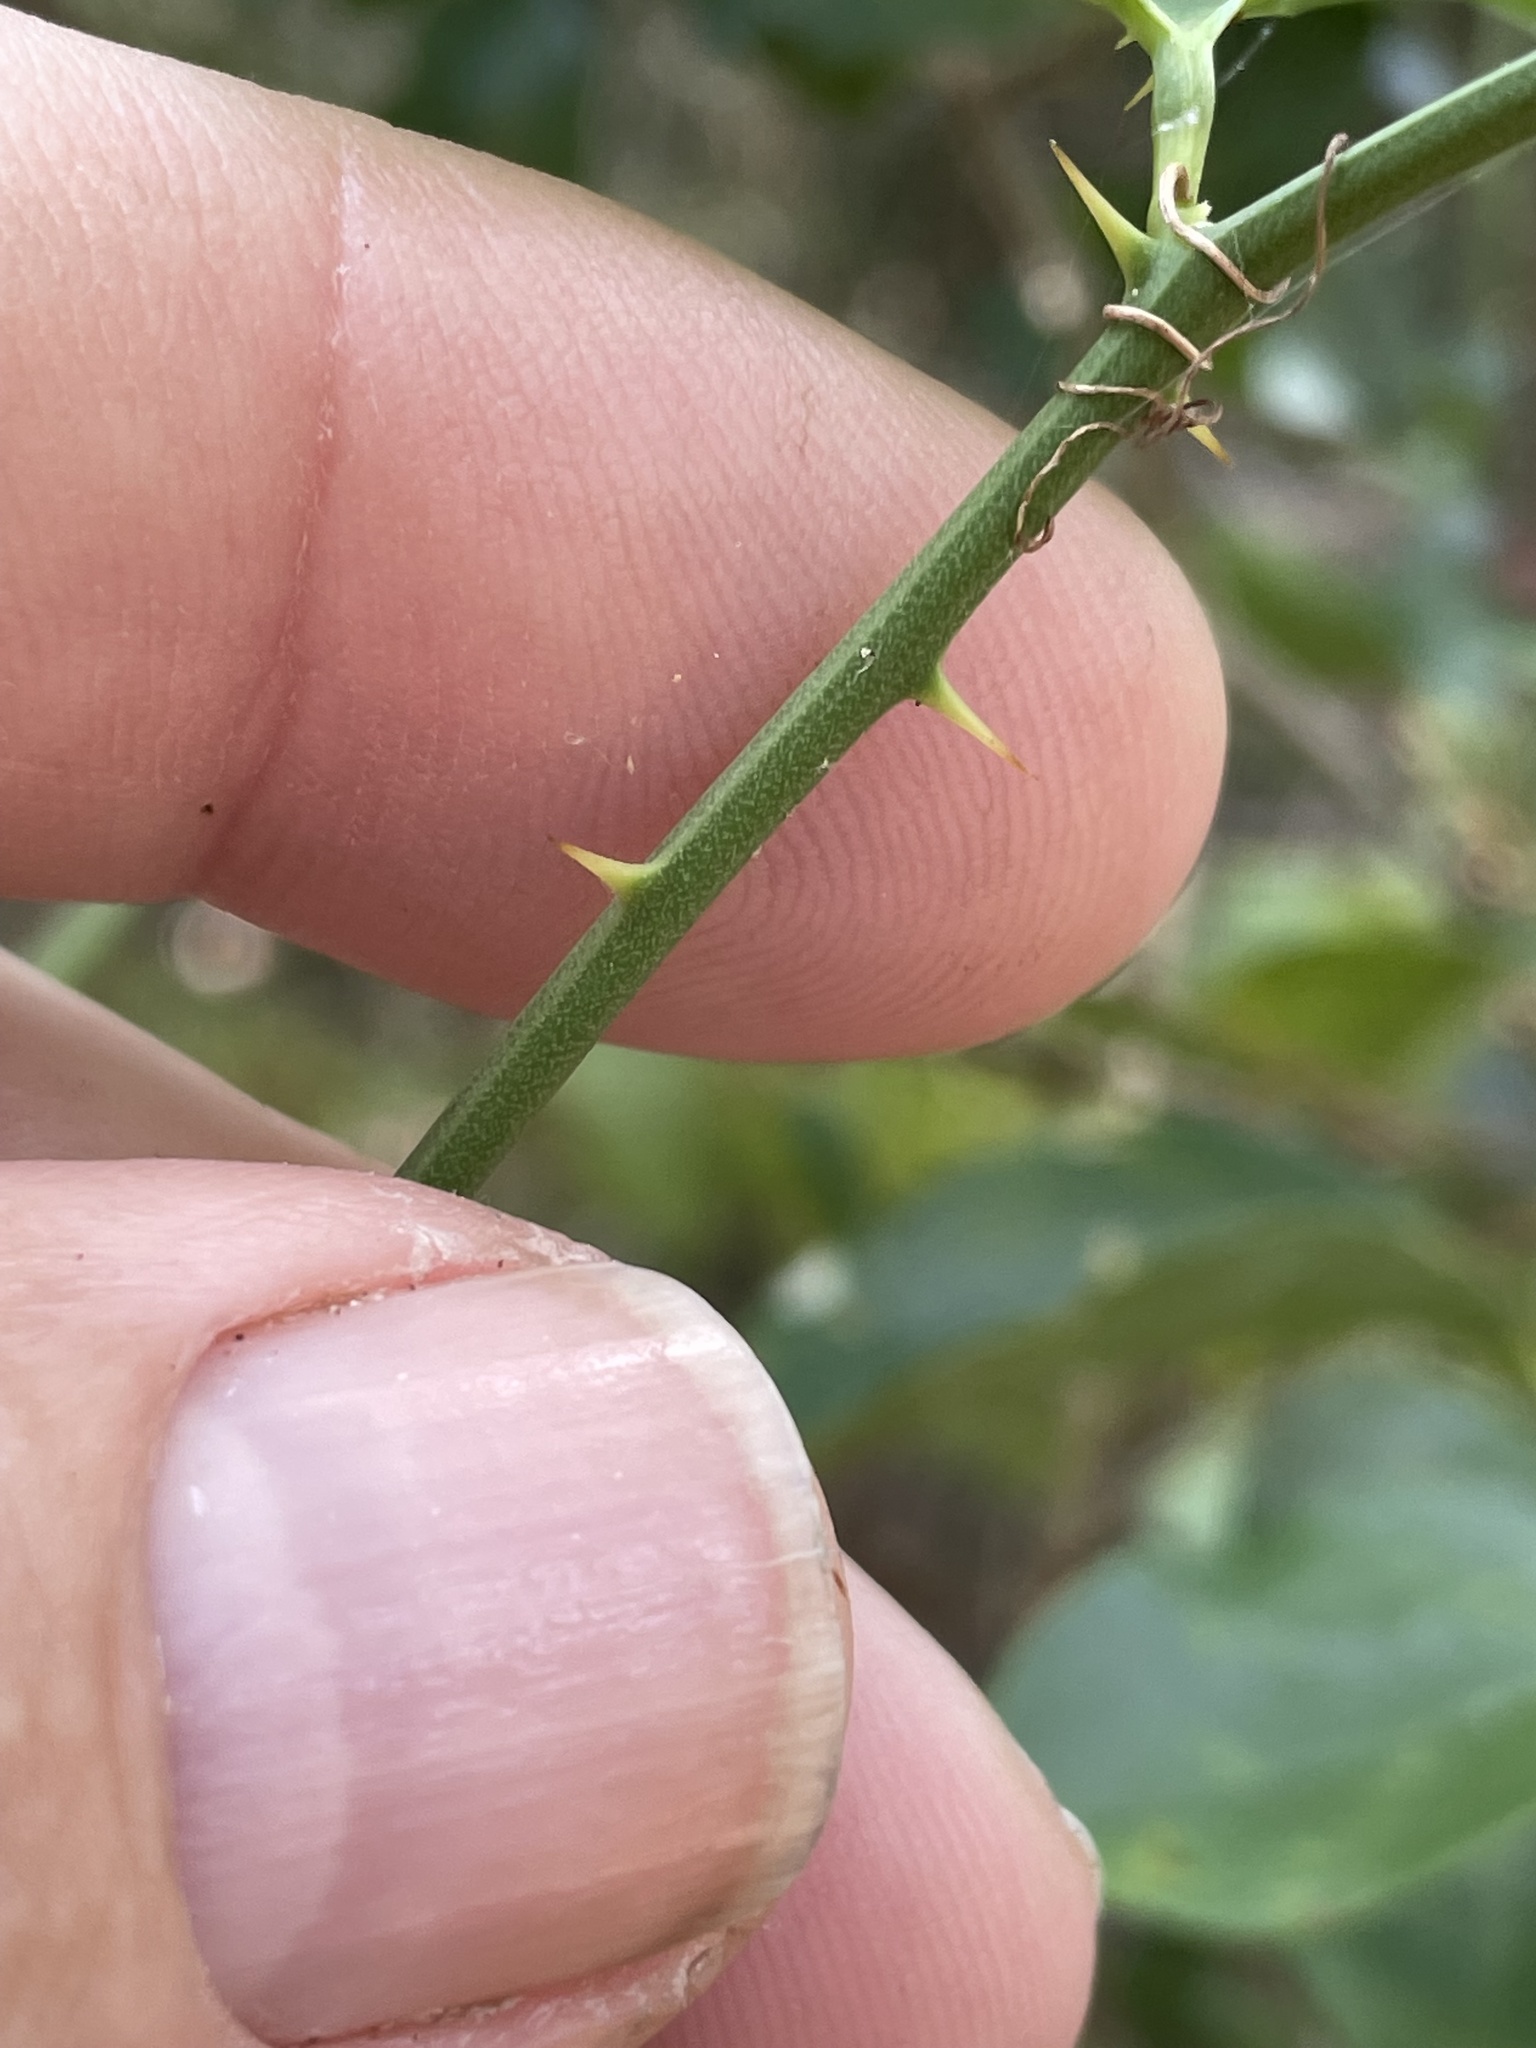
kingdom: Plantae
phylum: Tracheophyta
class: Liliopsida
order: Liliales
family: Smilacaceae
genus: Smilax
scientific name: Smilax bona-nox
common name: Catbrier
